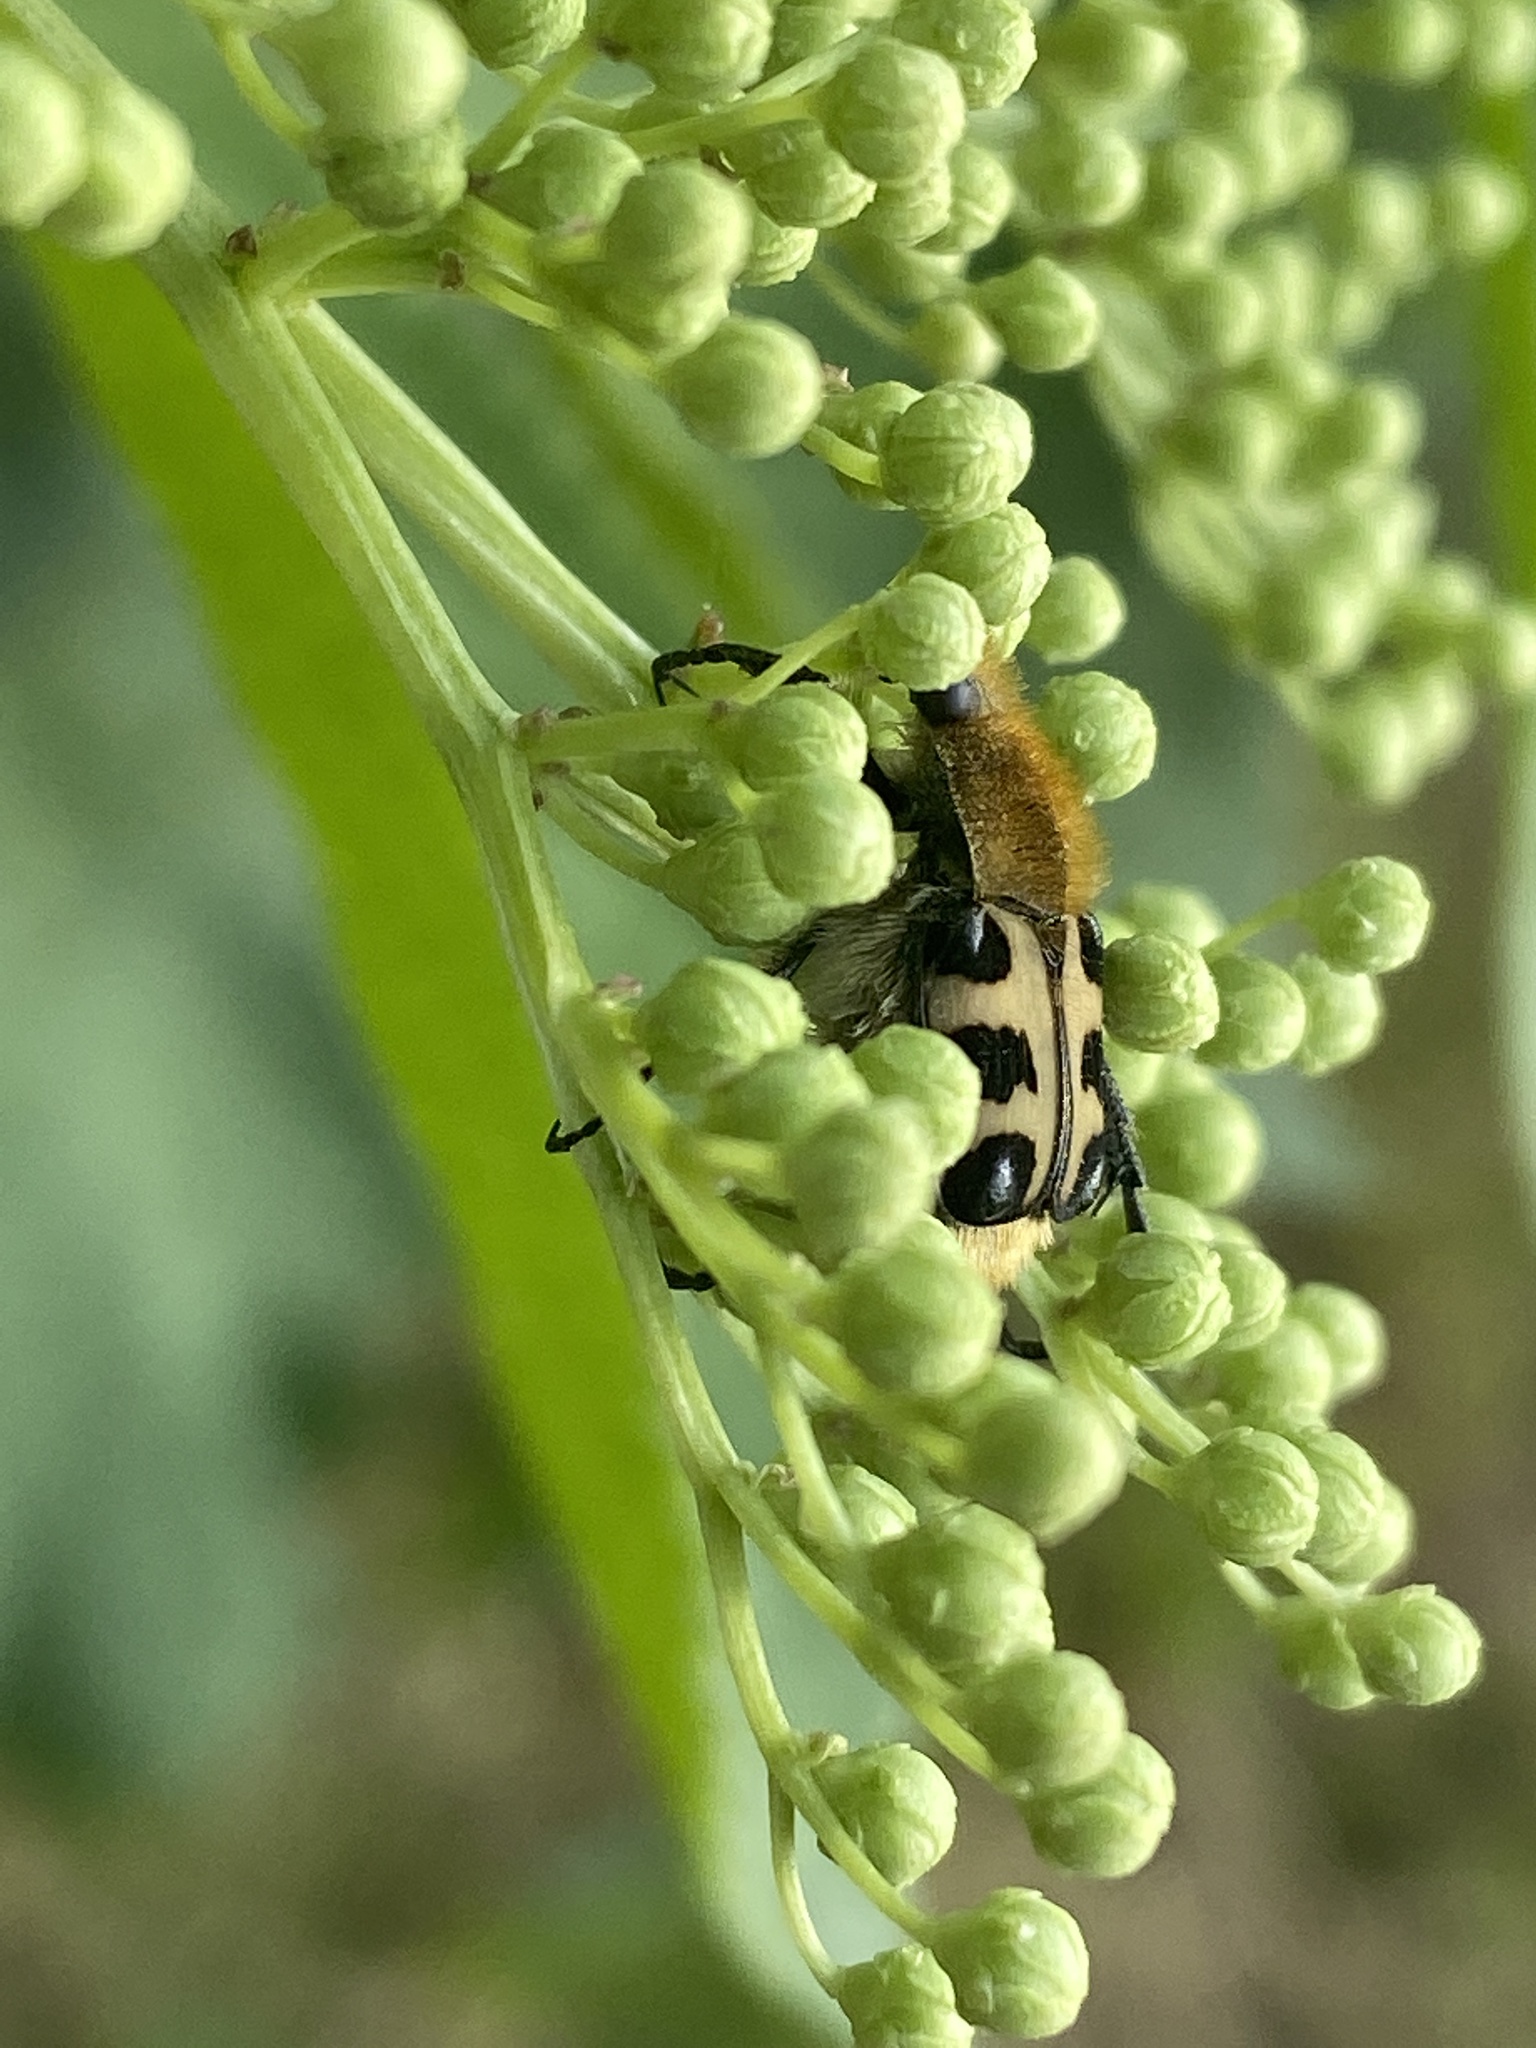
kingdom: Animalia
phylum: Arthropoda
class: Insecta
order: Coleoptera
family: Scarabaeidae
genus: Trichius
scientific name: Trichius gallicus
